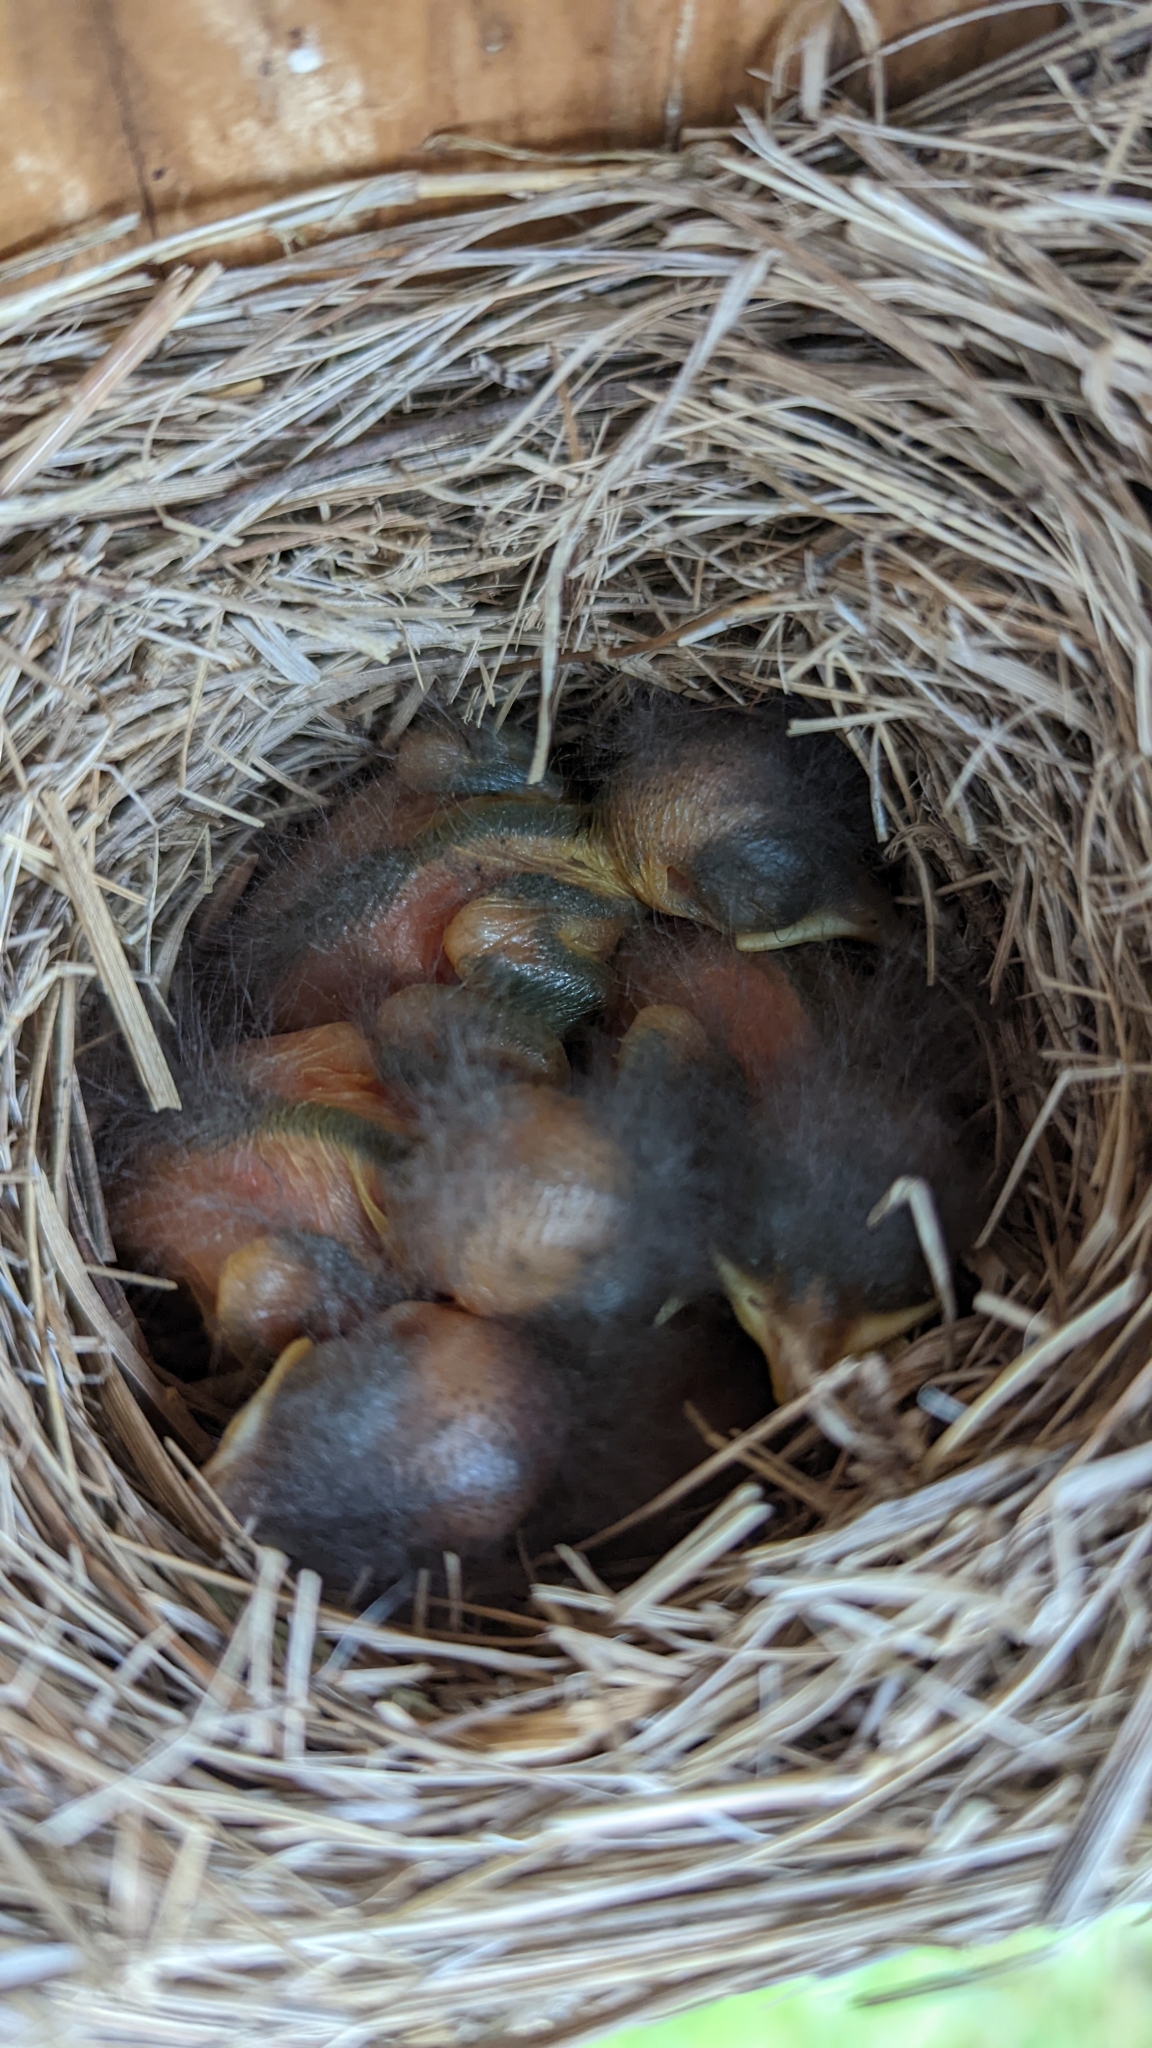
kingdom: Animalia
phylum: Chordata
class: Aves
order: Passeriformes
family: Turdidae
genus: Sialia
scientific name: Sialia sialis
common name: Eastern bluebird
